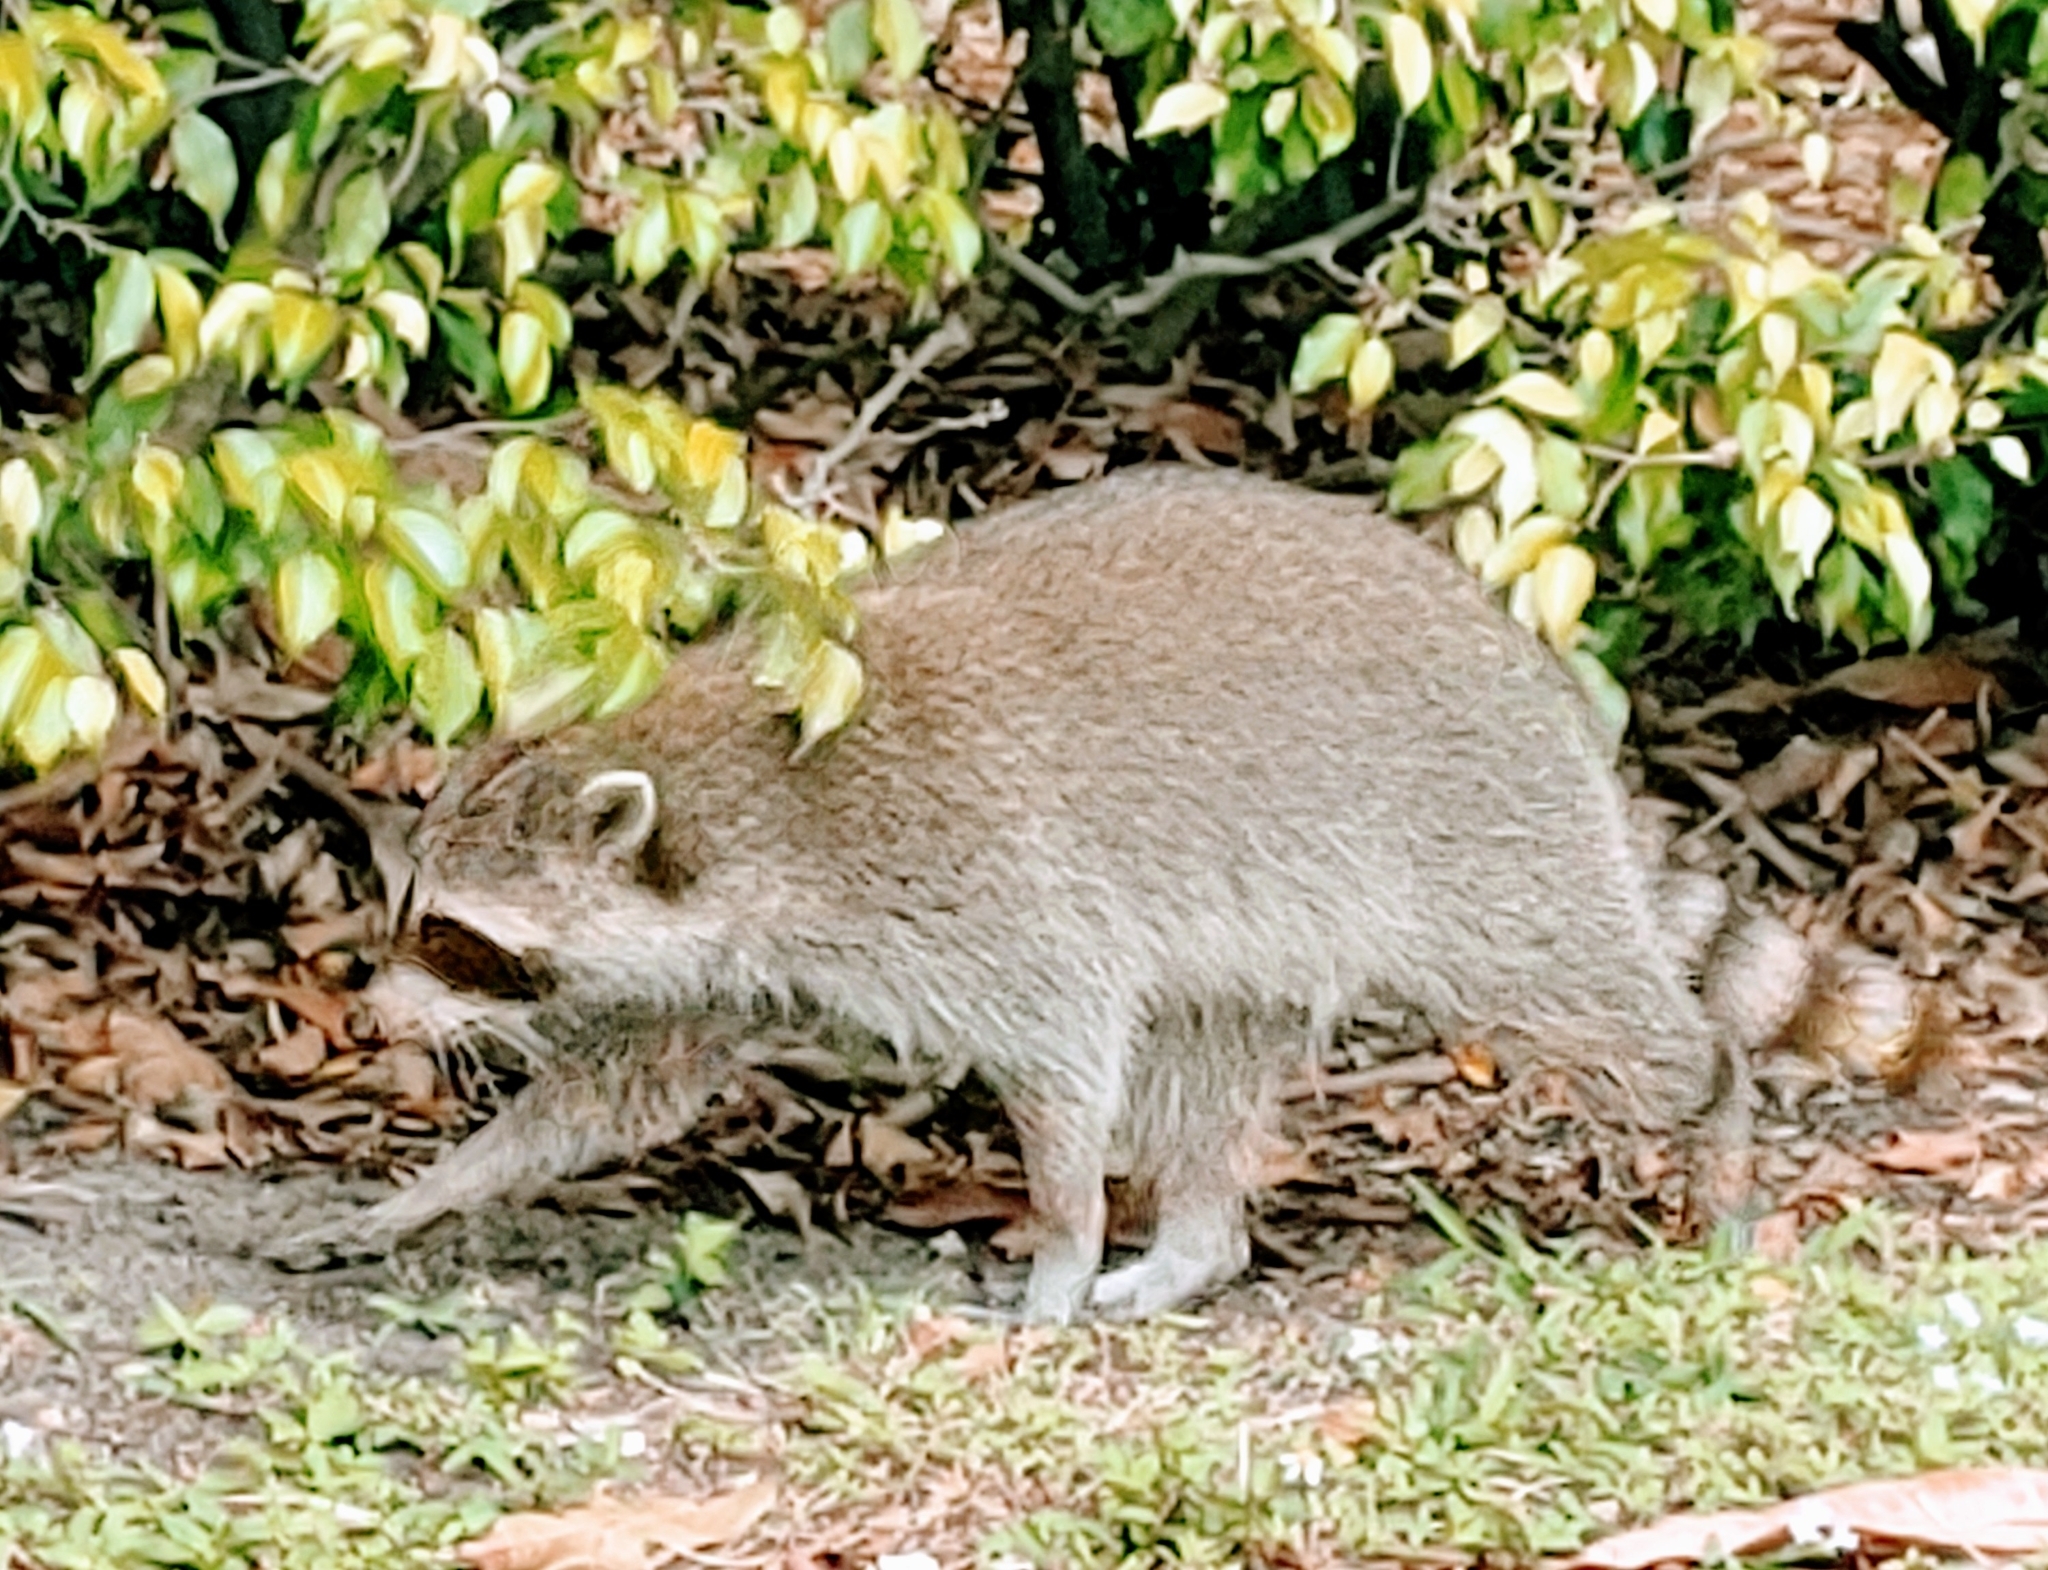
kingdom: Animalia
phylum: Chordata
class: Mammalia
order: Carnivora
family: Procyonidae
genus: Procyon
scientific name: Procyon lotor
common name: Raccoon
